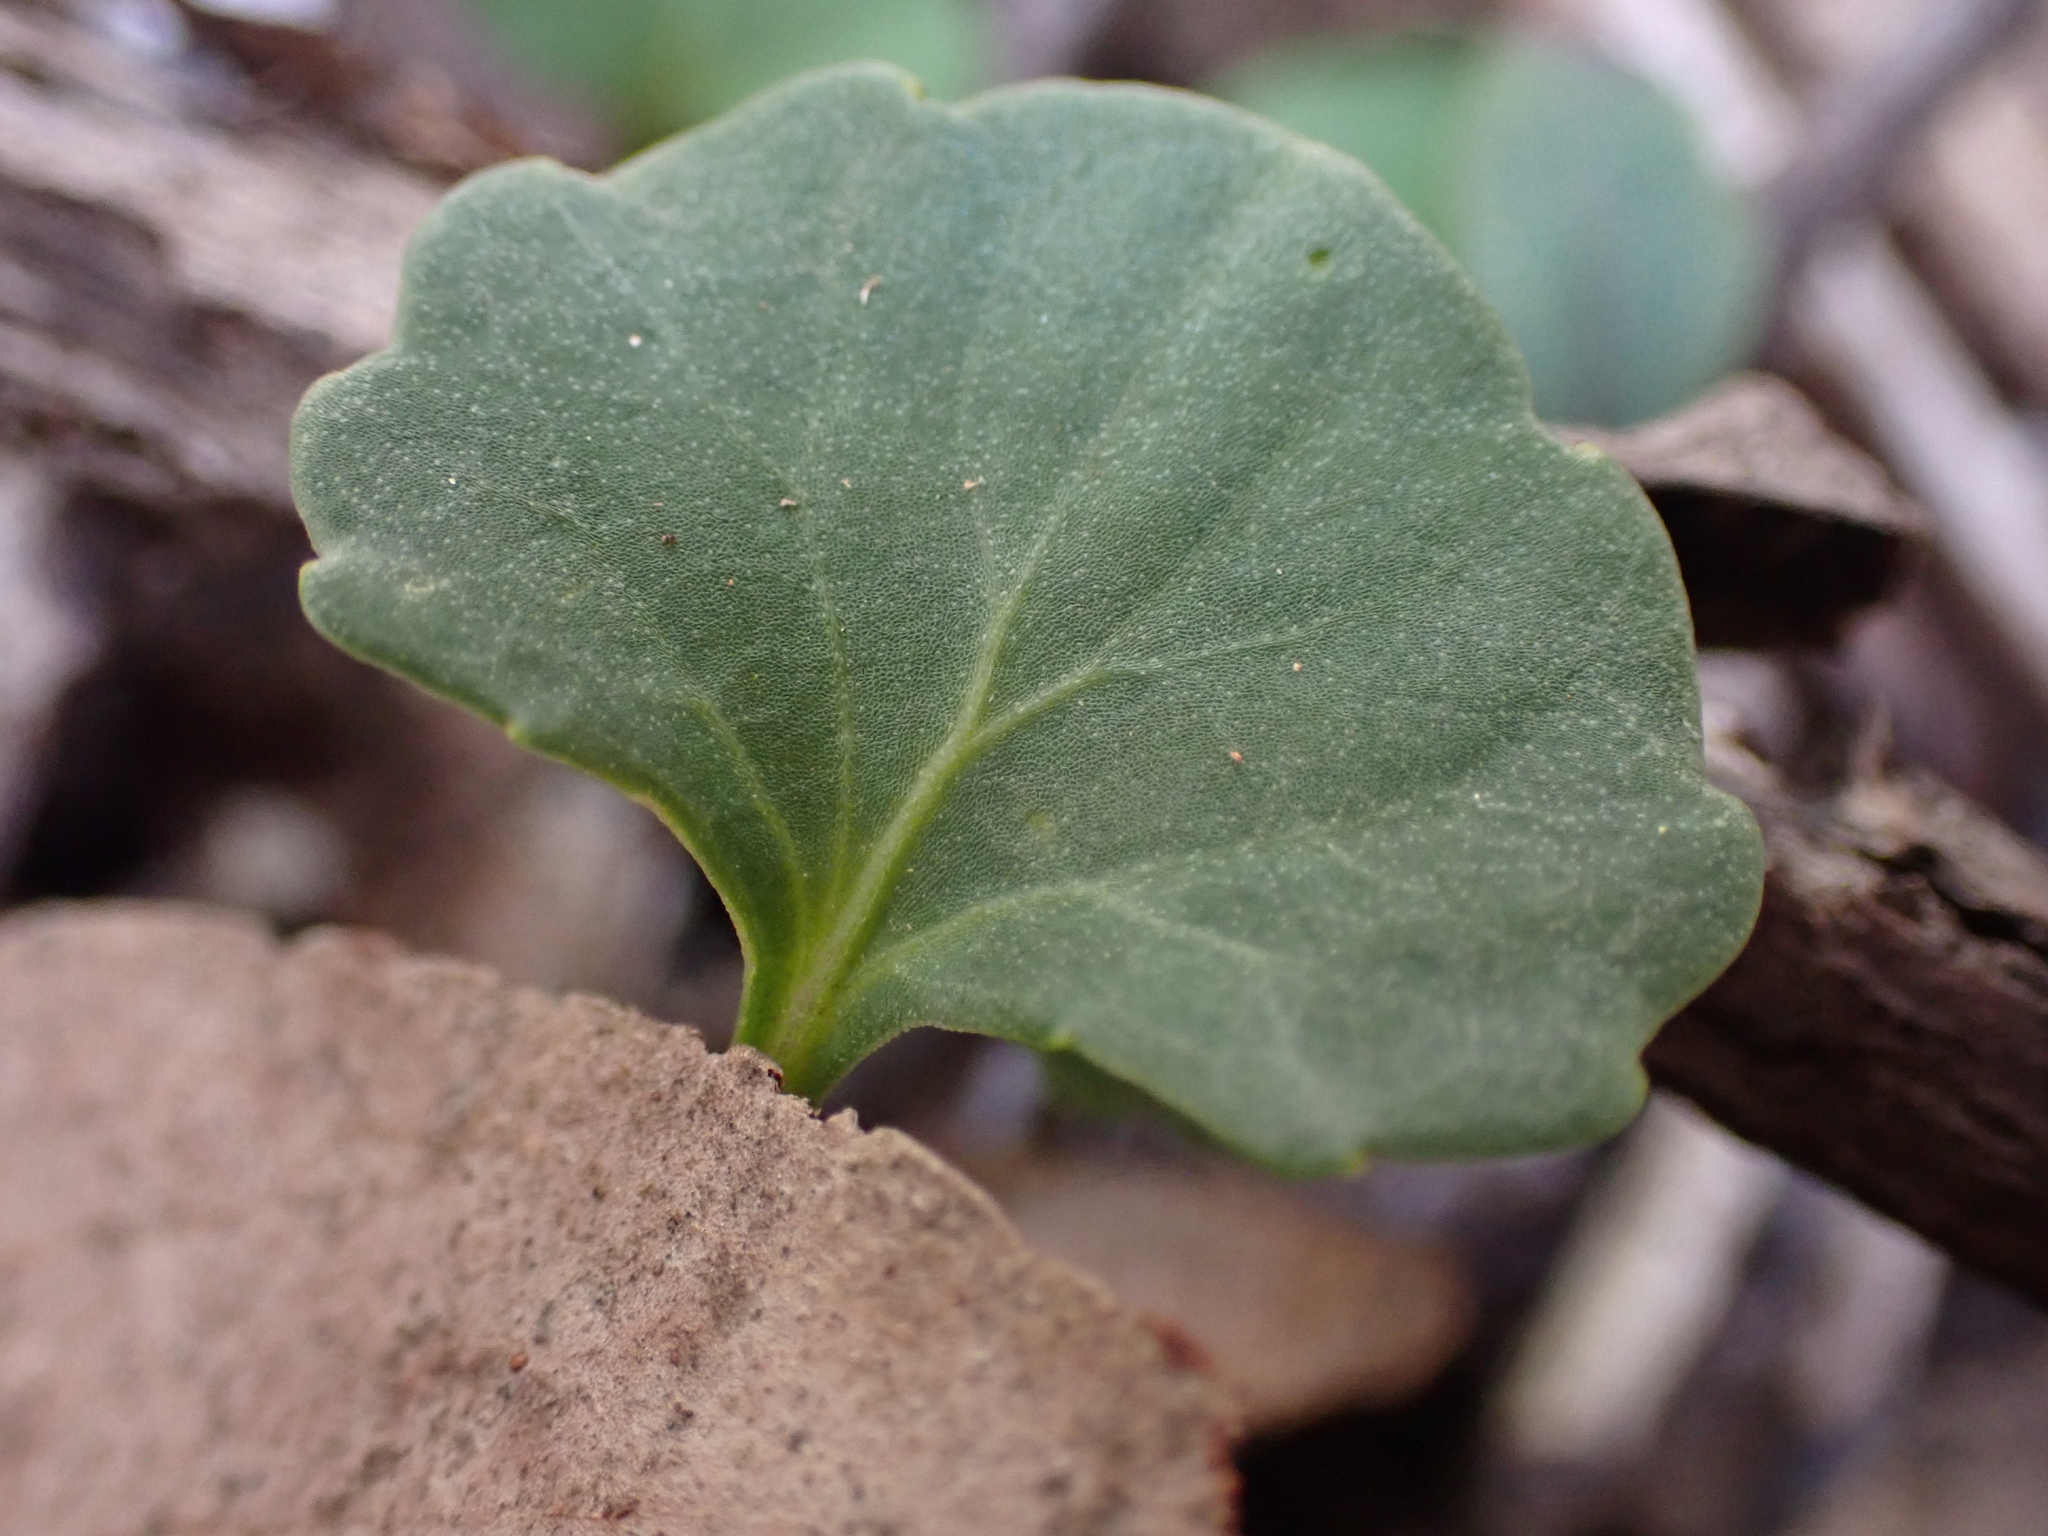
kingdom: Plantae
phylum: Tracheophyta
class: Magnoliopsida
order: Malpighiales
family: Violaceae
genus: Viola
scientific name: Viola hederacea
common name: Australian violet
